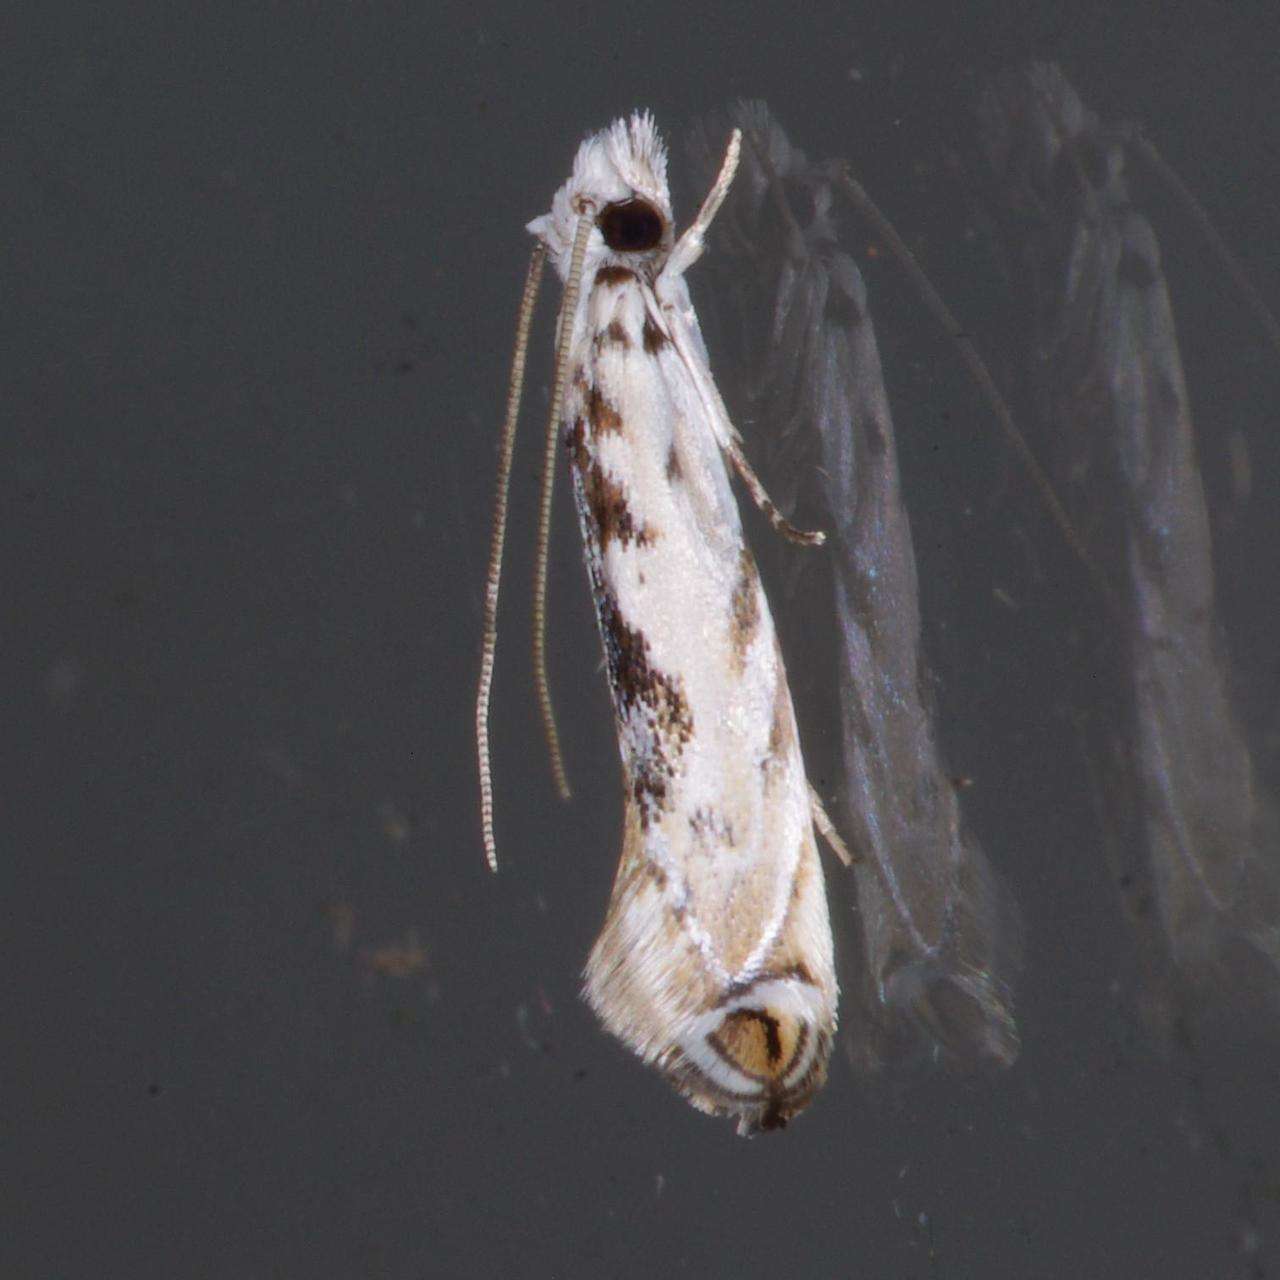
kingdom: Animalia
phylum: Arthropoda
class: Insecta
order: Lepidoptera
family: Tineidae
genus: Erechthias
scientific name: Erechthias mystacinella
